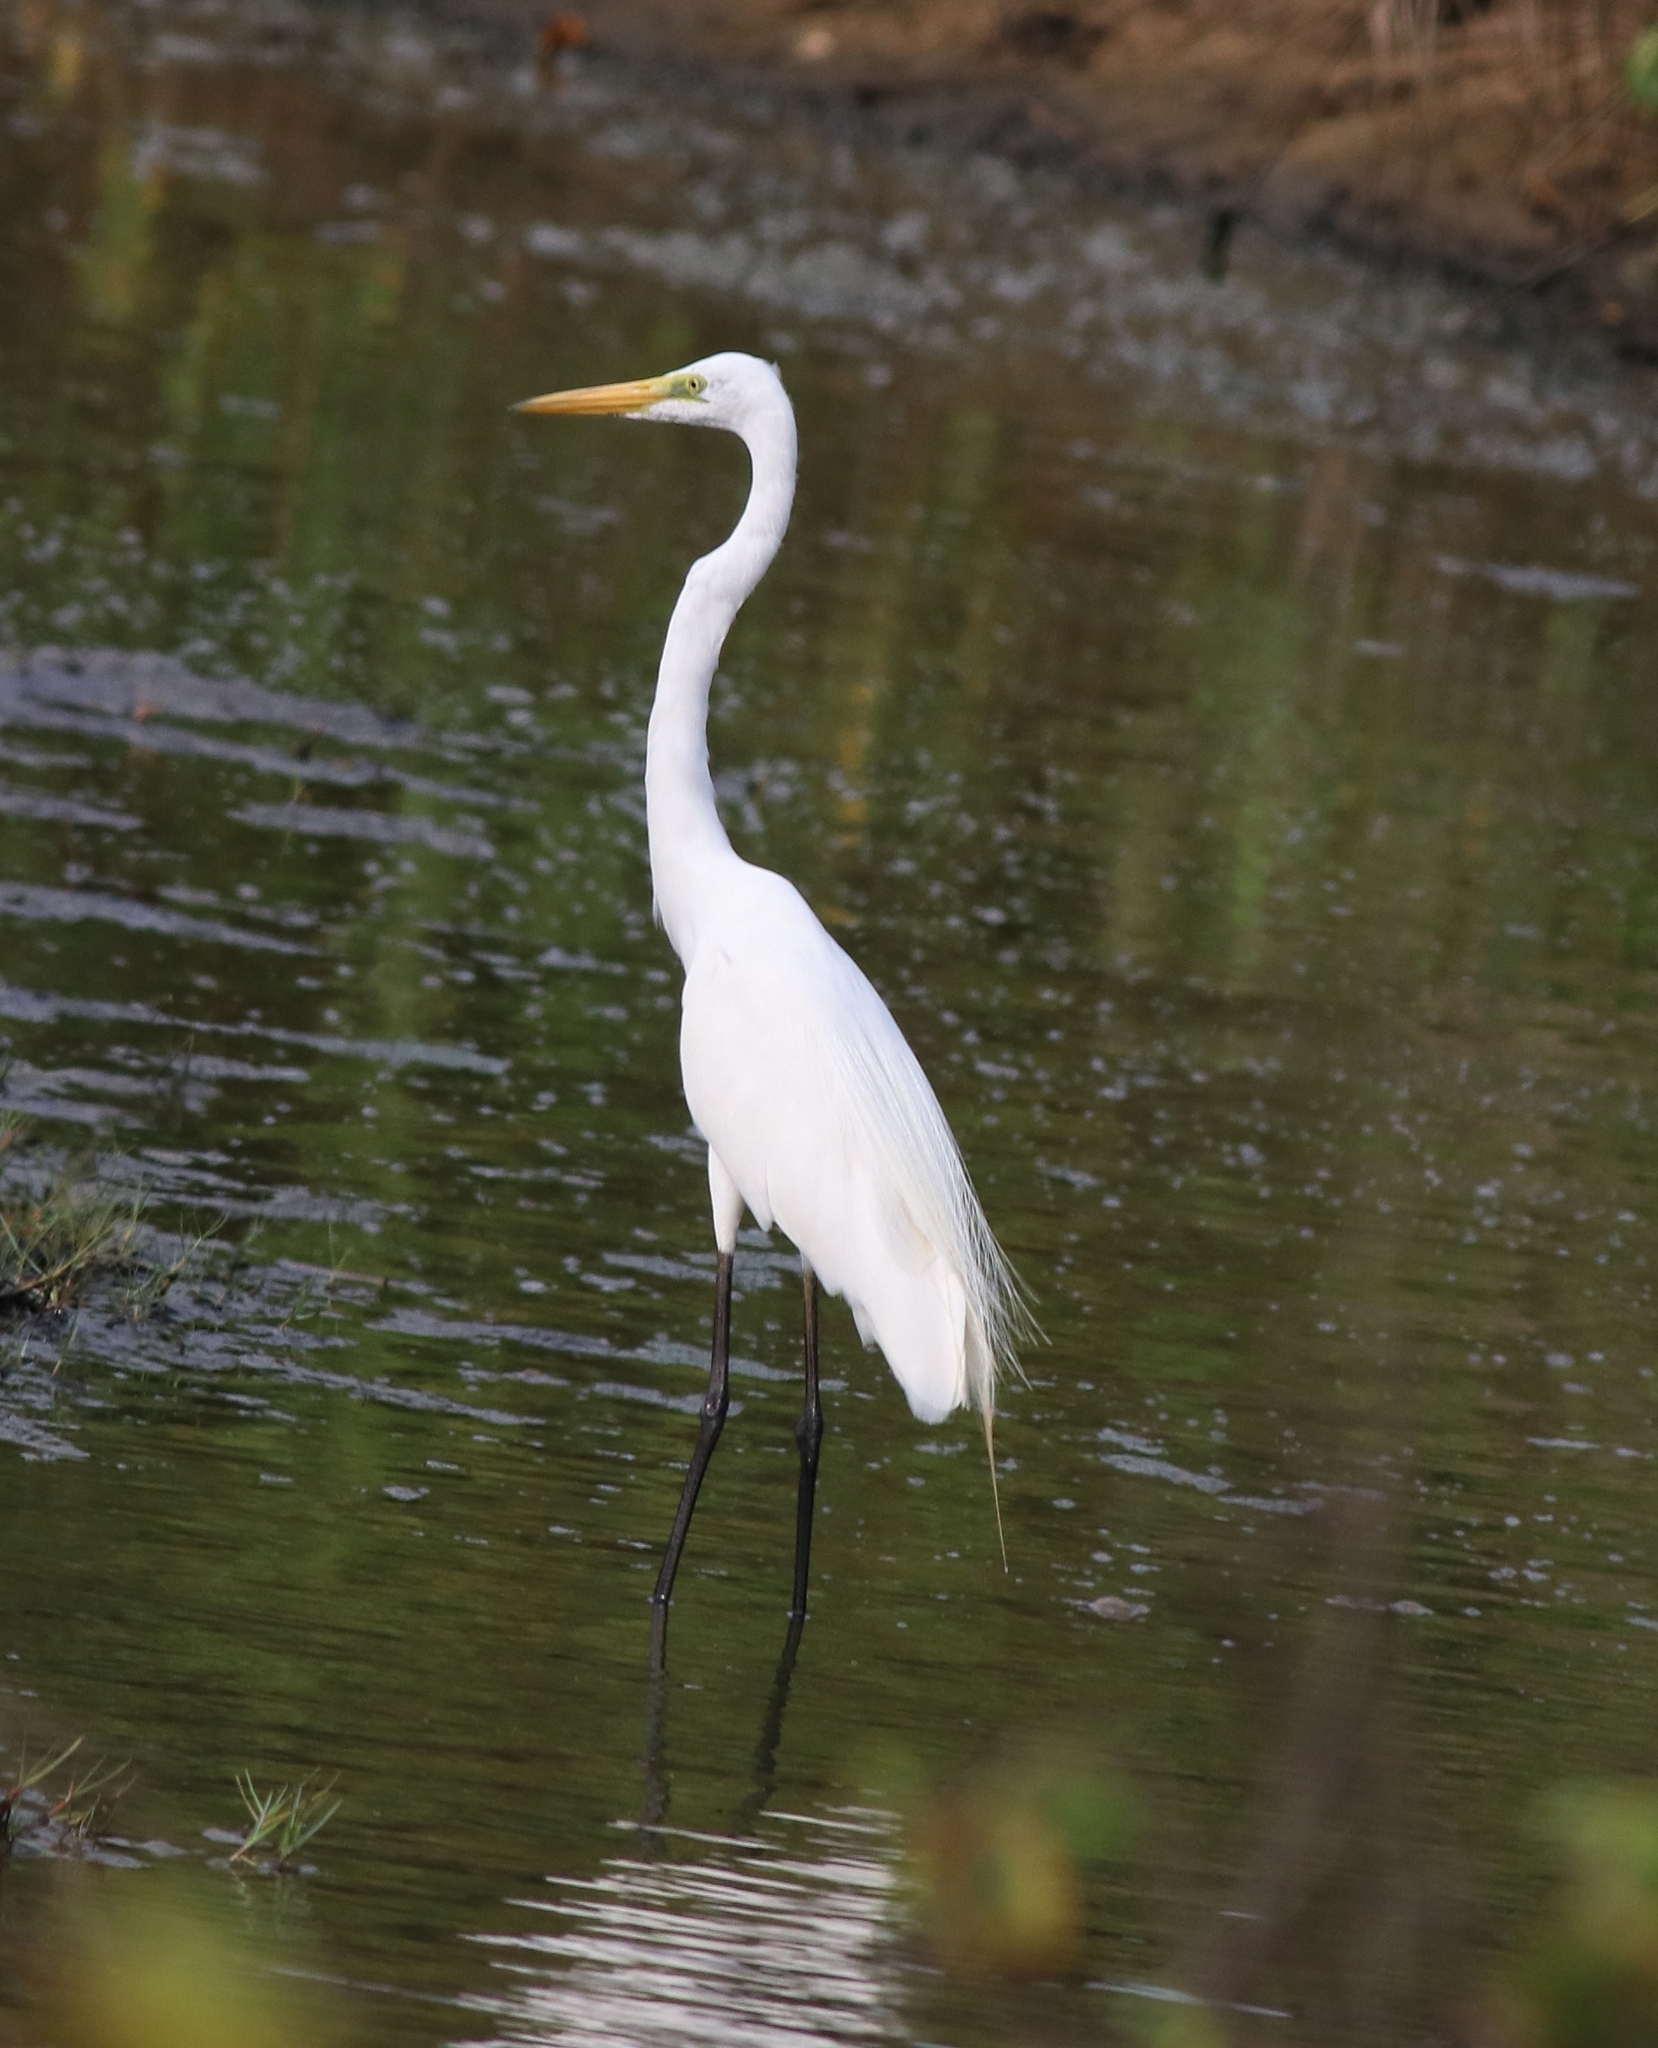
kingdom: Animalia
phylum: Chordata
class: Aves
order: Pelecaniformes
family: Ardeidae
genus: Ardea
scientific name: Ardea alba
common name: Great egret
